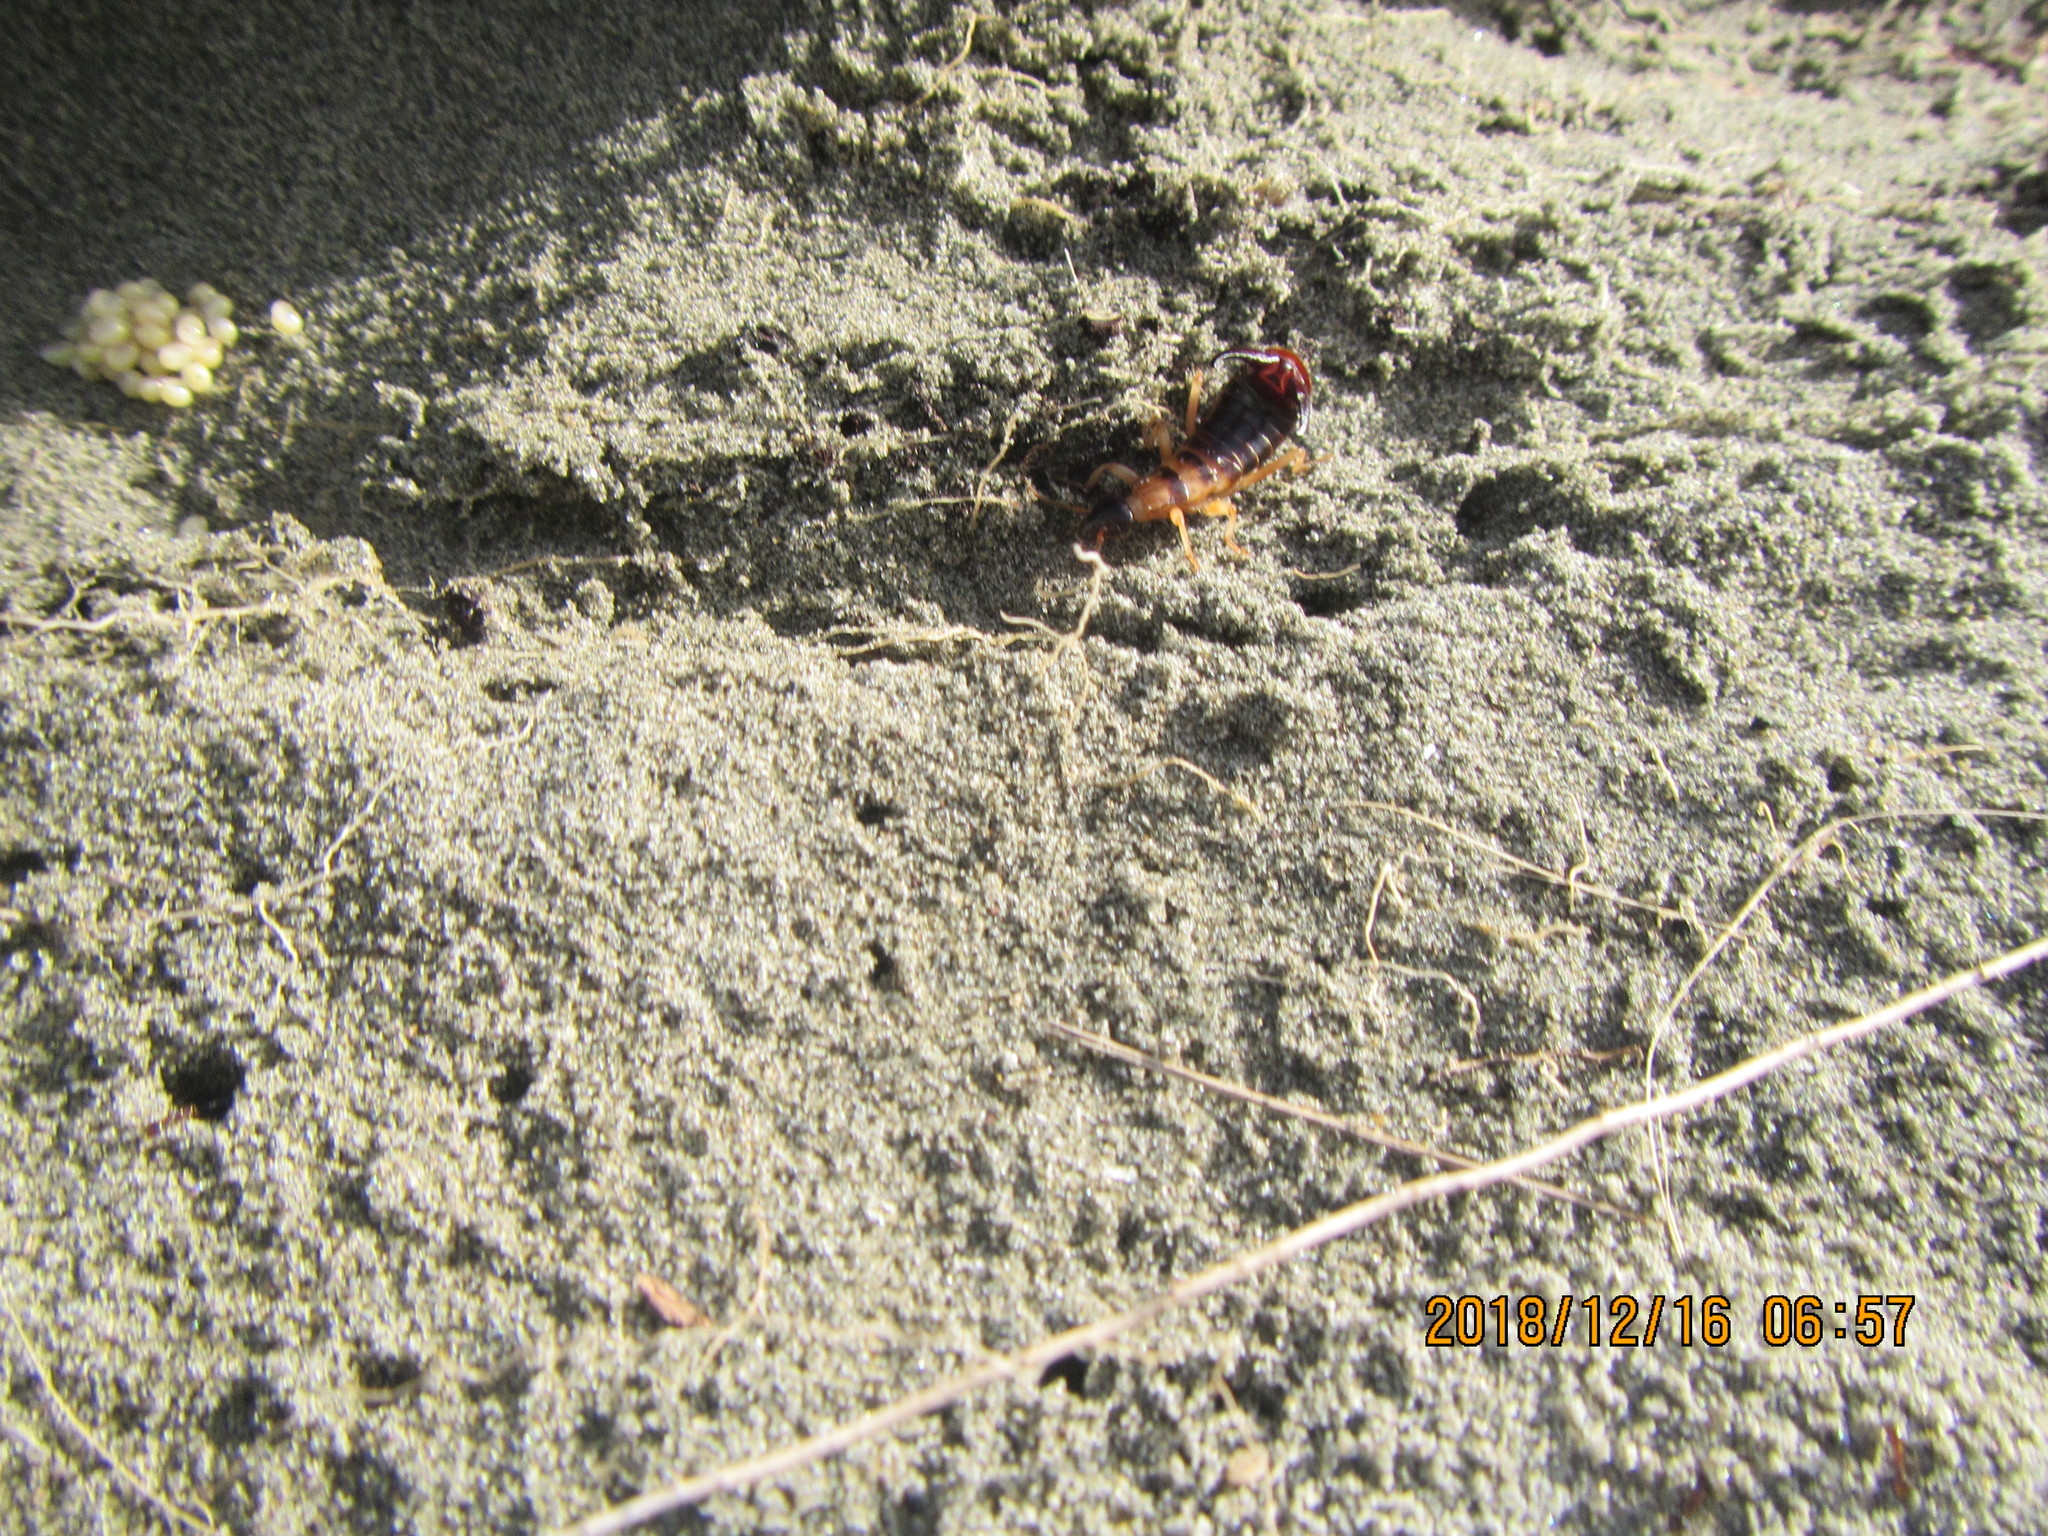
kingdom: Animalia
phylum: Arthropoda
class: Insecta
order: Dermaptera
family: Anisolabididae
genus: Anisolabis
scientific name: Anisolabis littorea
